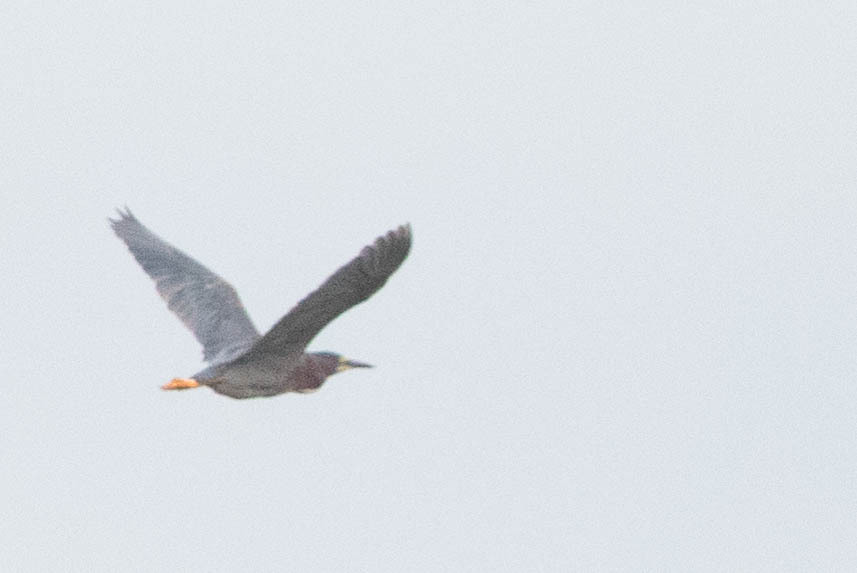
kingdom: Animalia
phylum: Chordata
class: Aves
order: Pelecaniformes
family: Ardeidae
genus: Butorides
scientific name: Butorides virescens
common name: Green heron
